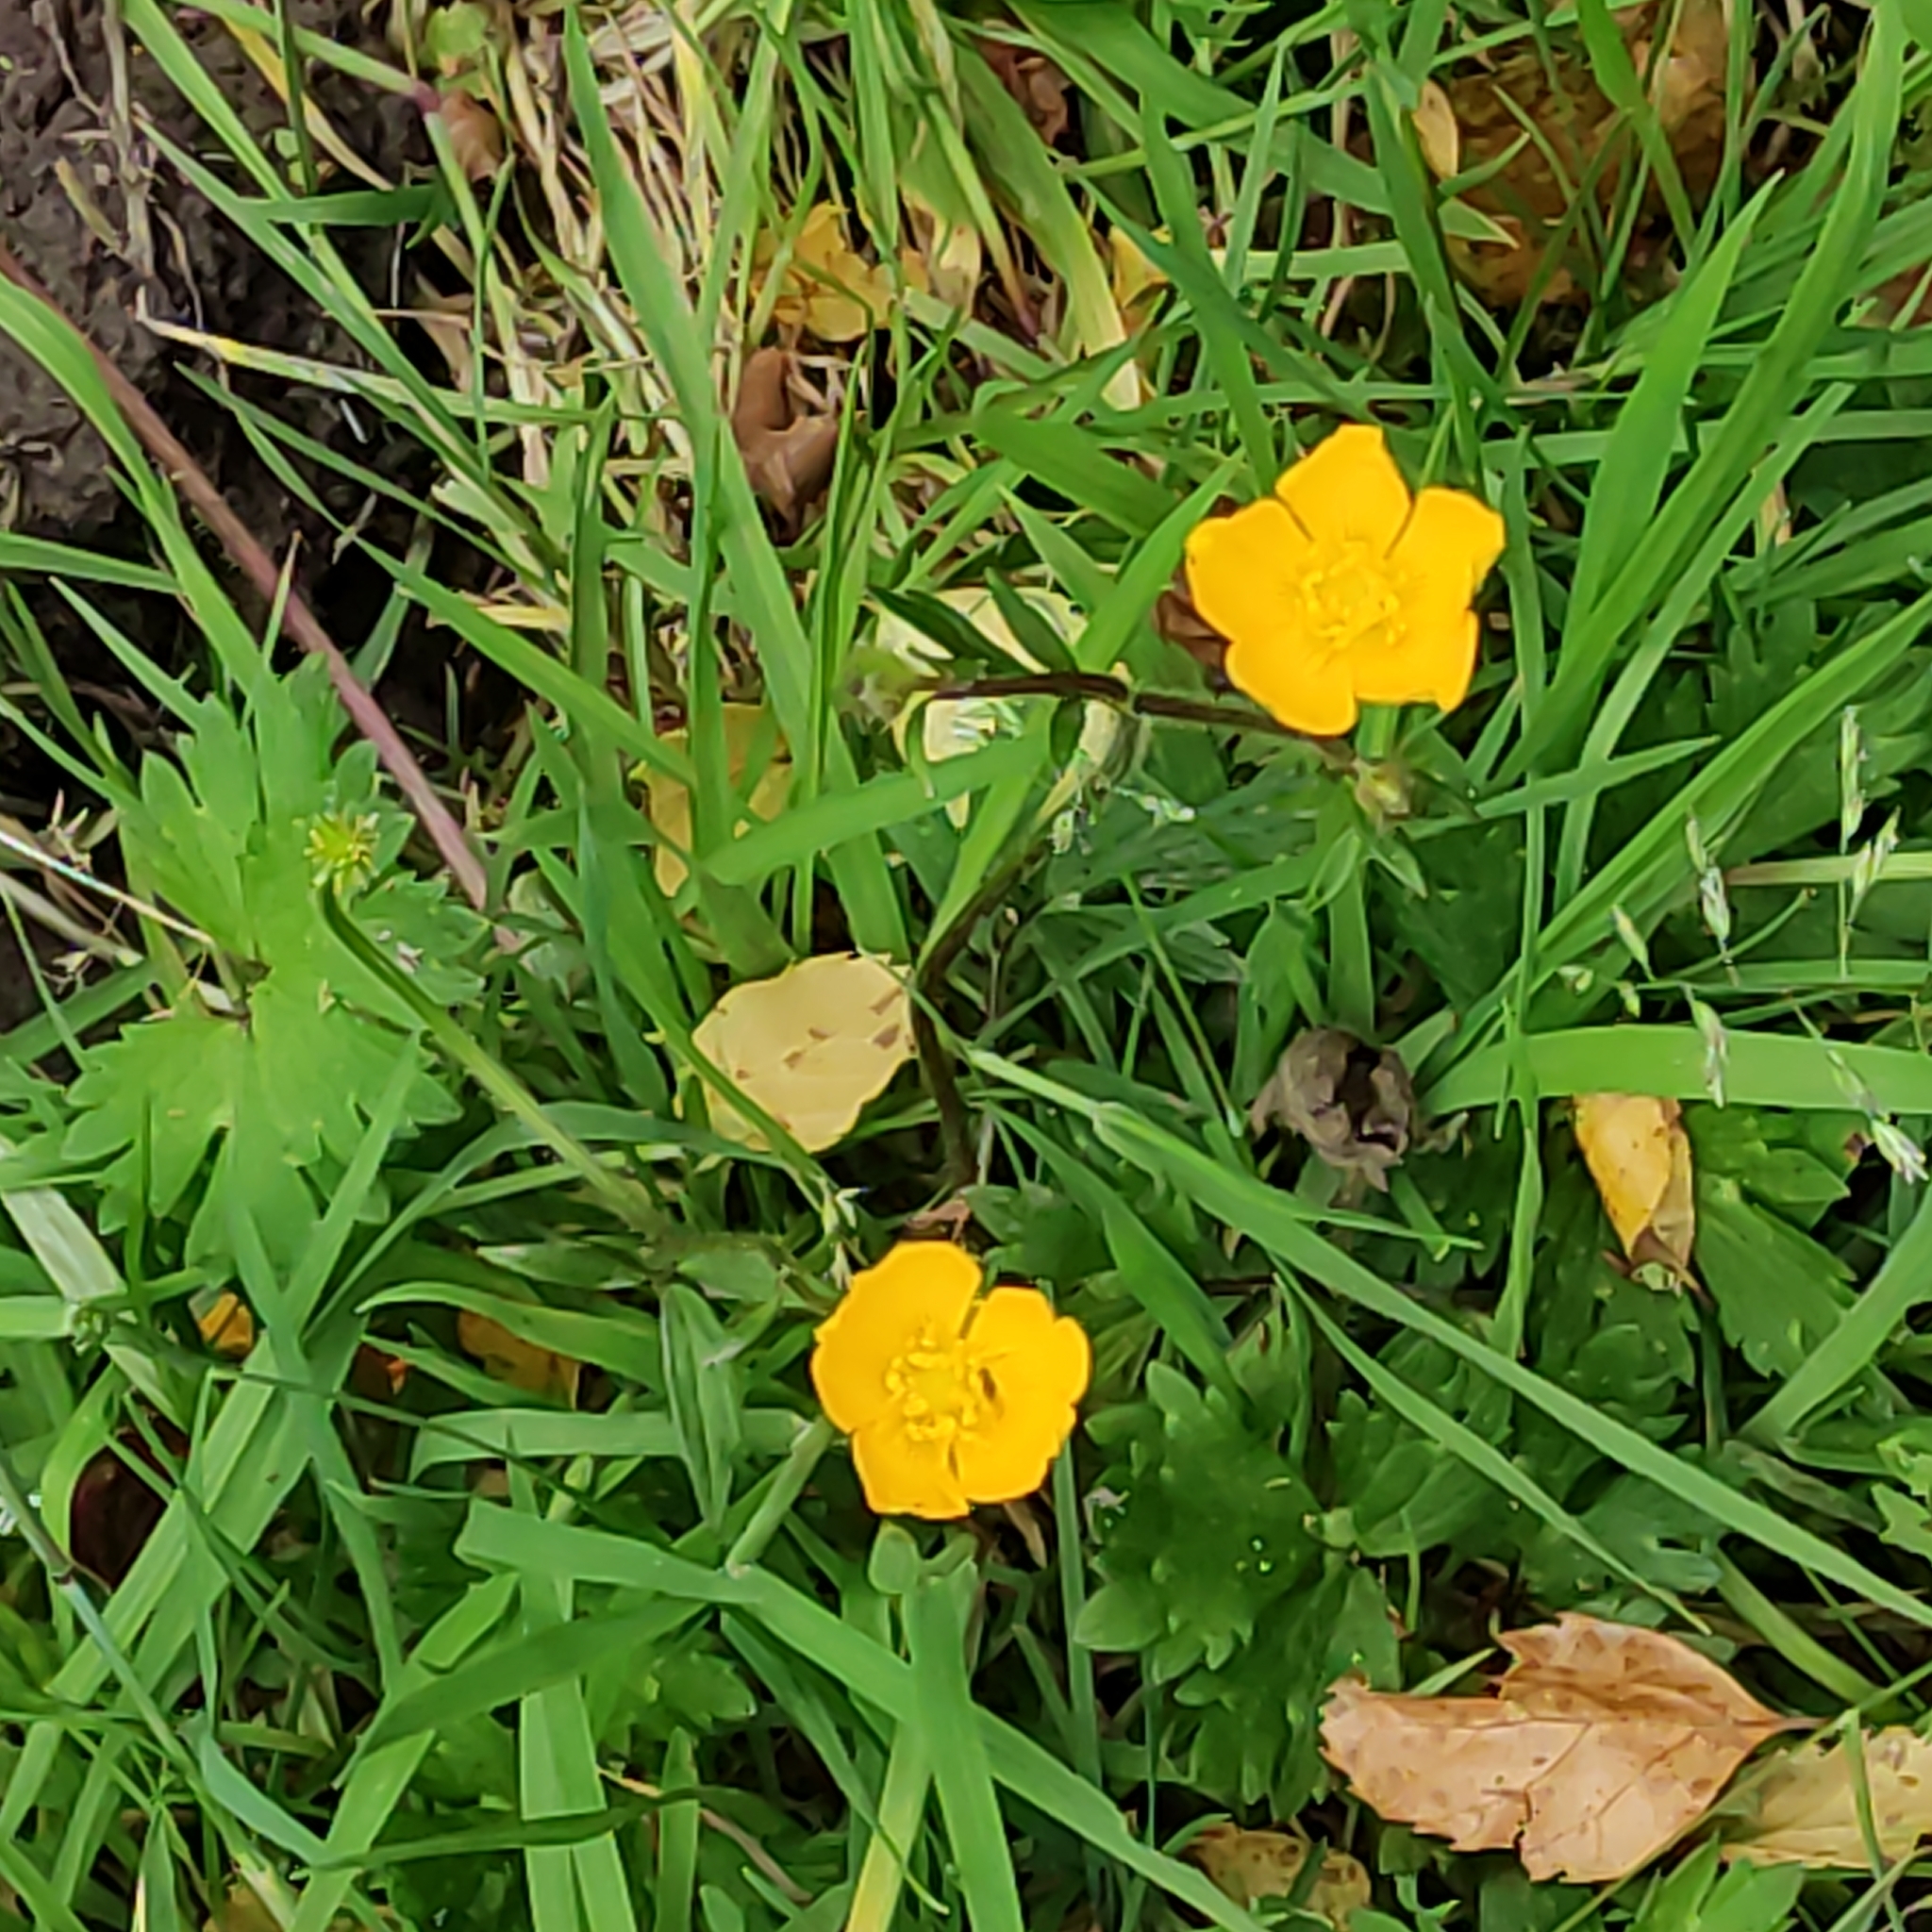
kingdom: Plantae
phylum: Tracheophyta
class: Magnoliopsida
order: Ranunculales
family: Ranunculaceae
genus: Ranunculus
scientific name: Ranunculus repens
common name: Creeping buttercup
